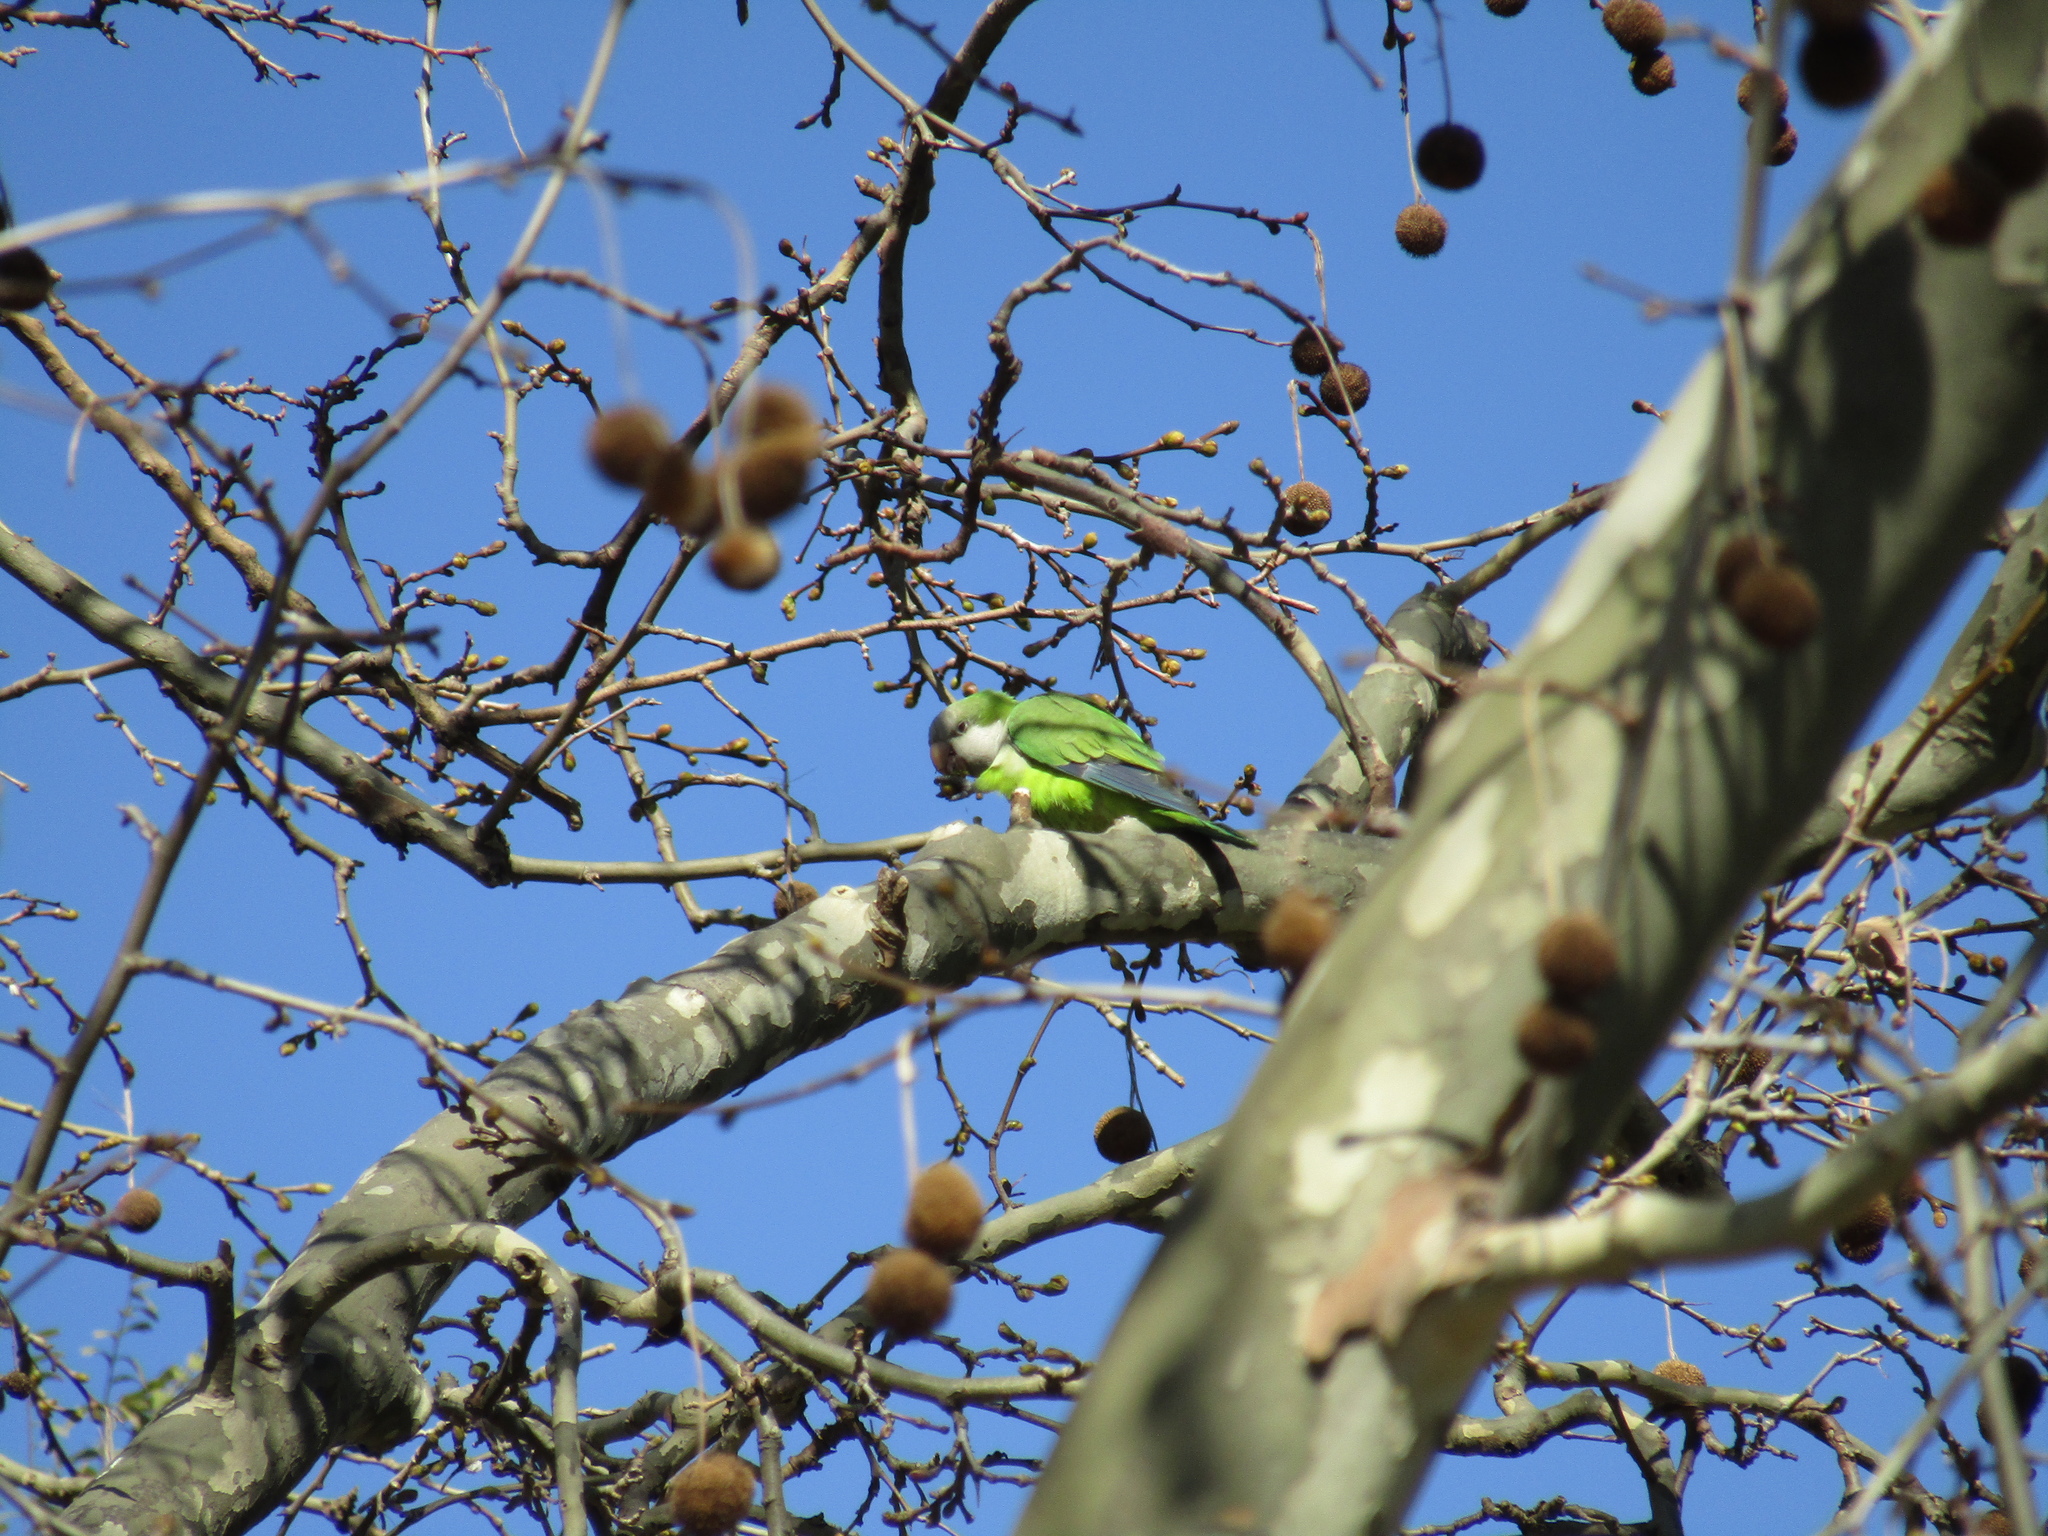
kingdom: Animalia
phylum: Chordata
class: Aves
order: Psittaciformes
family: Psittacidae
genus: Myiopsitta
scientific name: Myiopsitta monachus
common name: Monk parakeet
